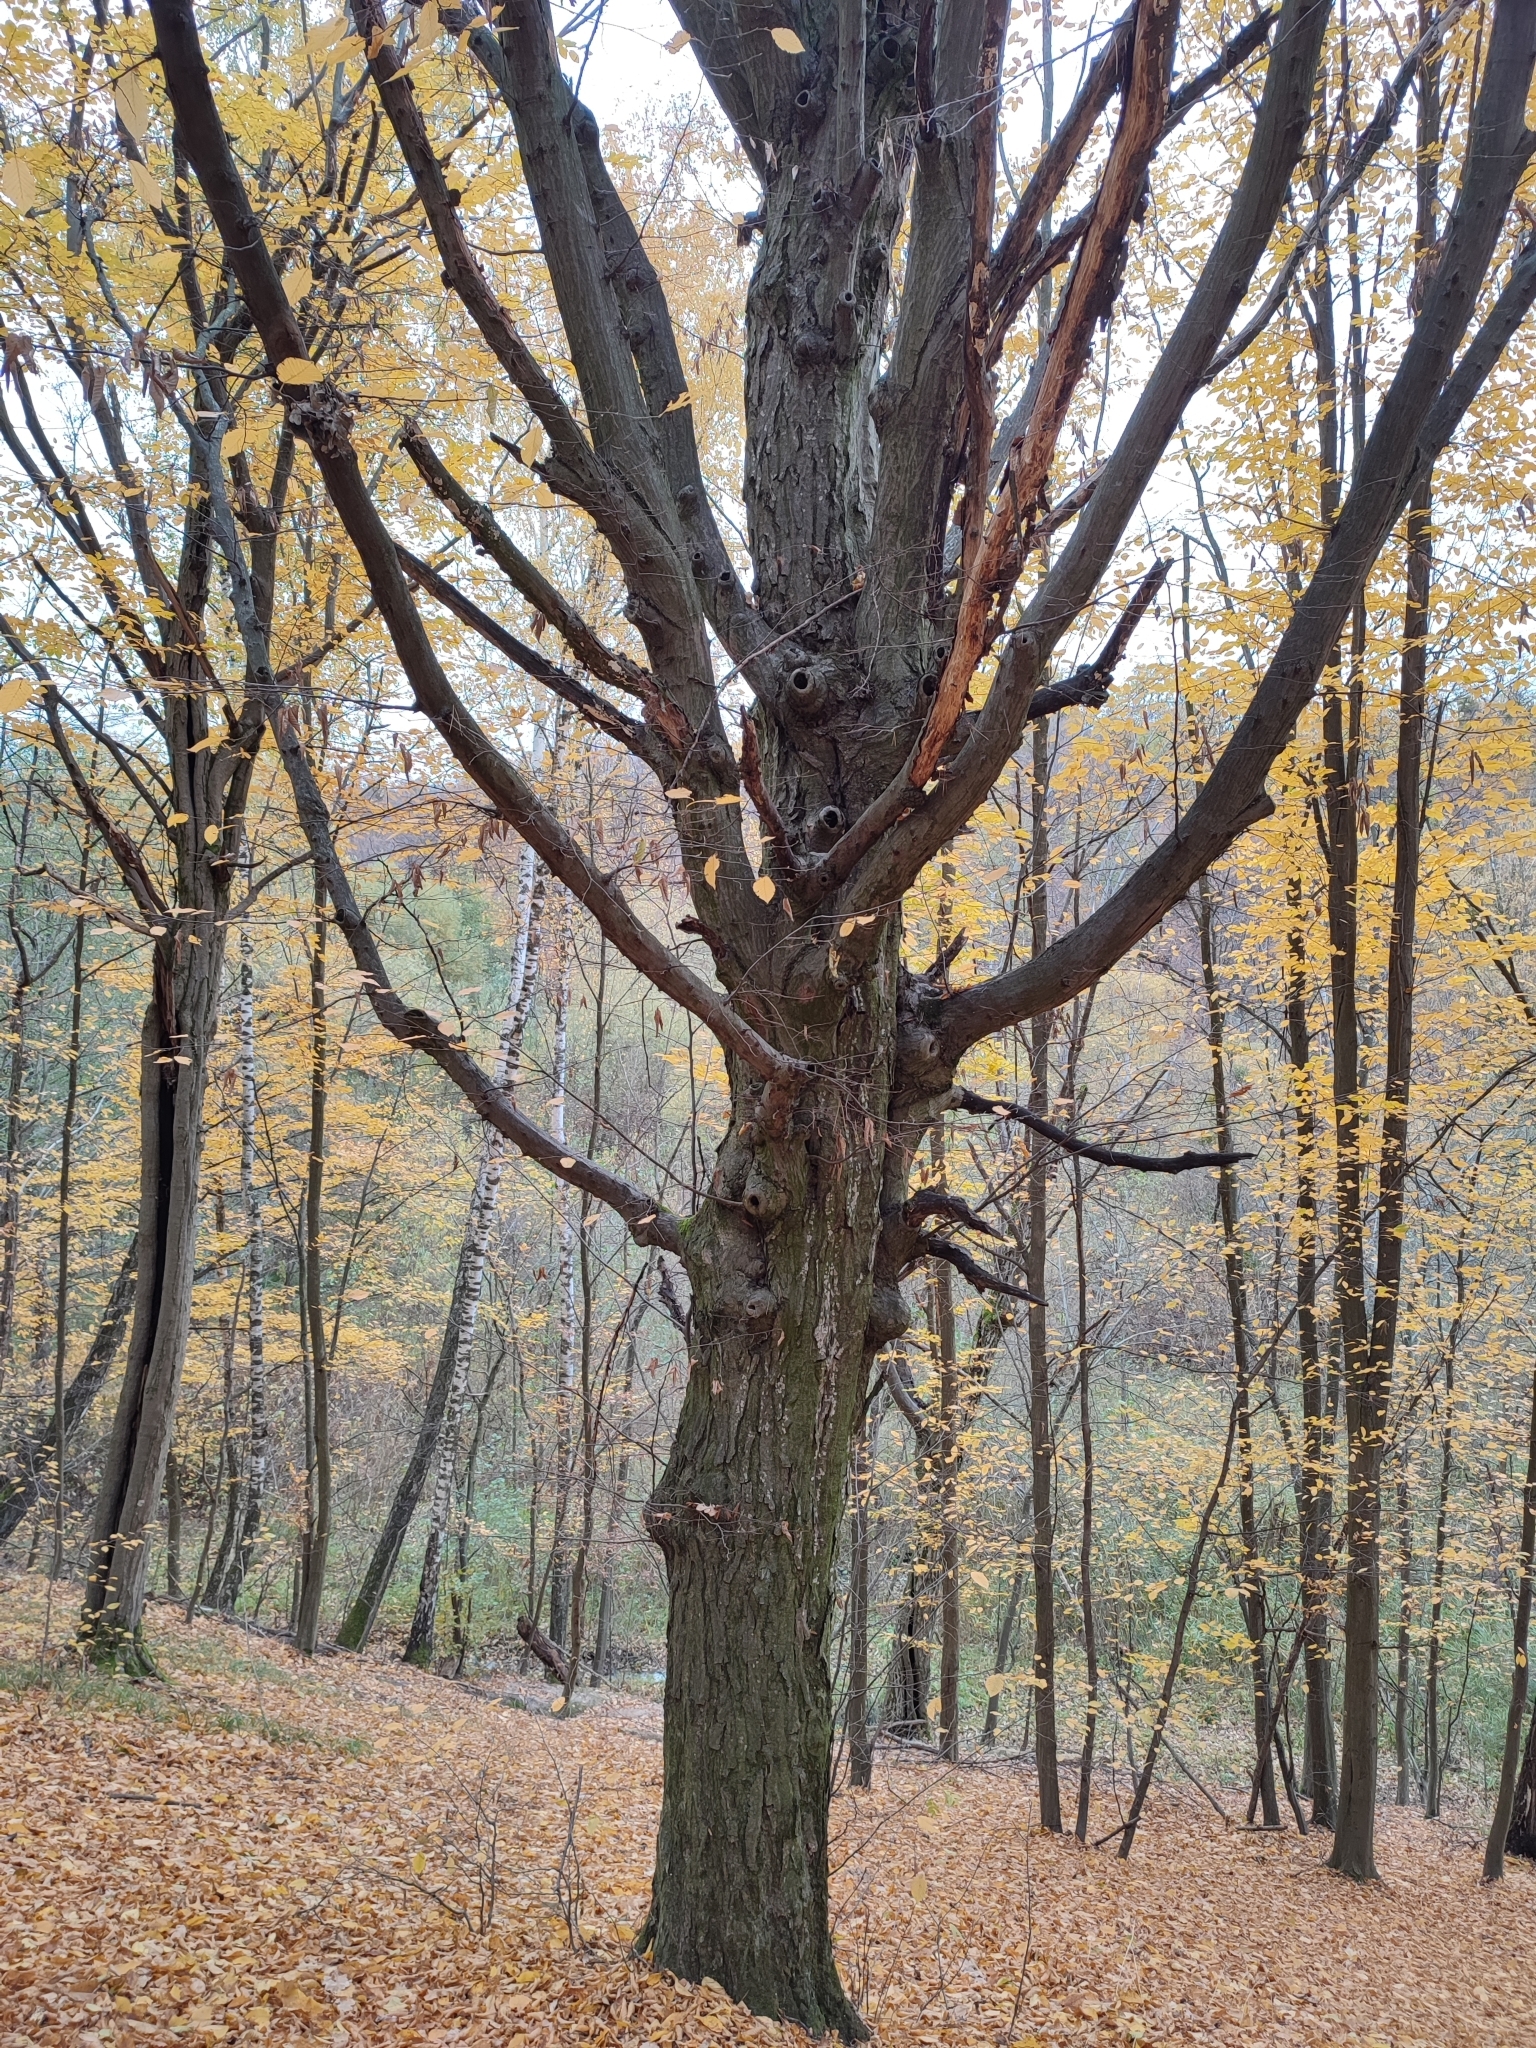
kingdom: Plantae
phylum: Tracheophyta
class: Magnoliopsida
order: Fagales
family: Betulaceae
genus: Carpinus
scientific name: Carpinus betulus
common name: Hornbeam
